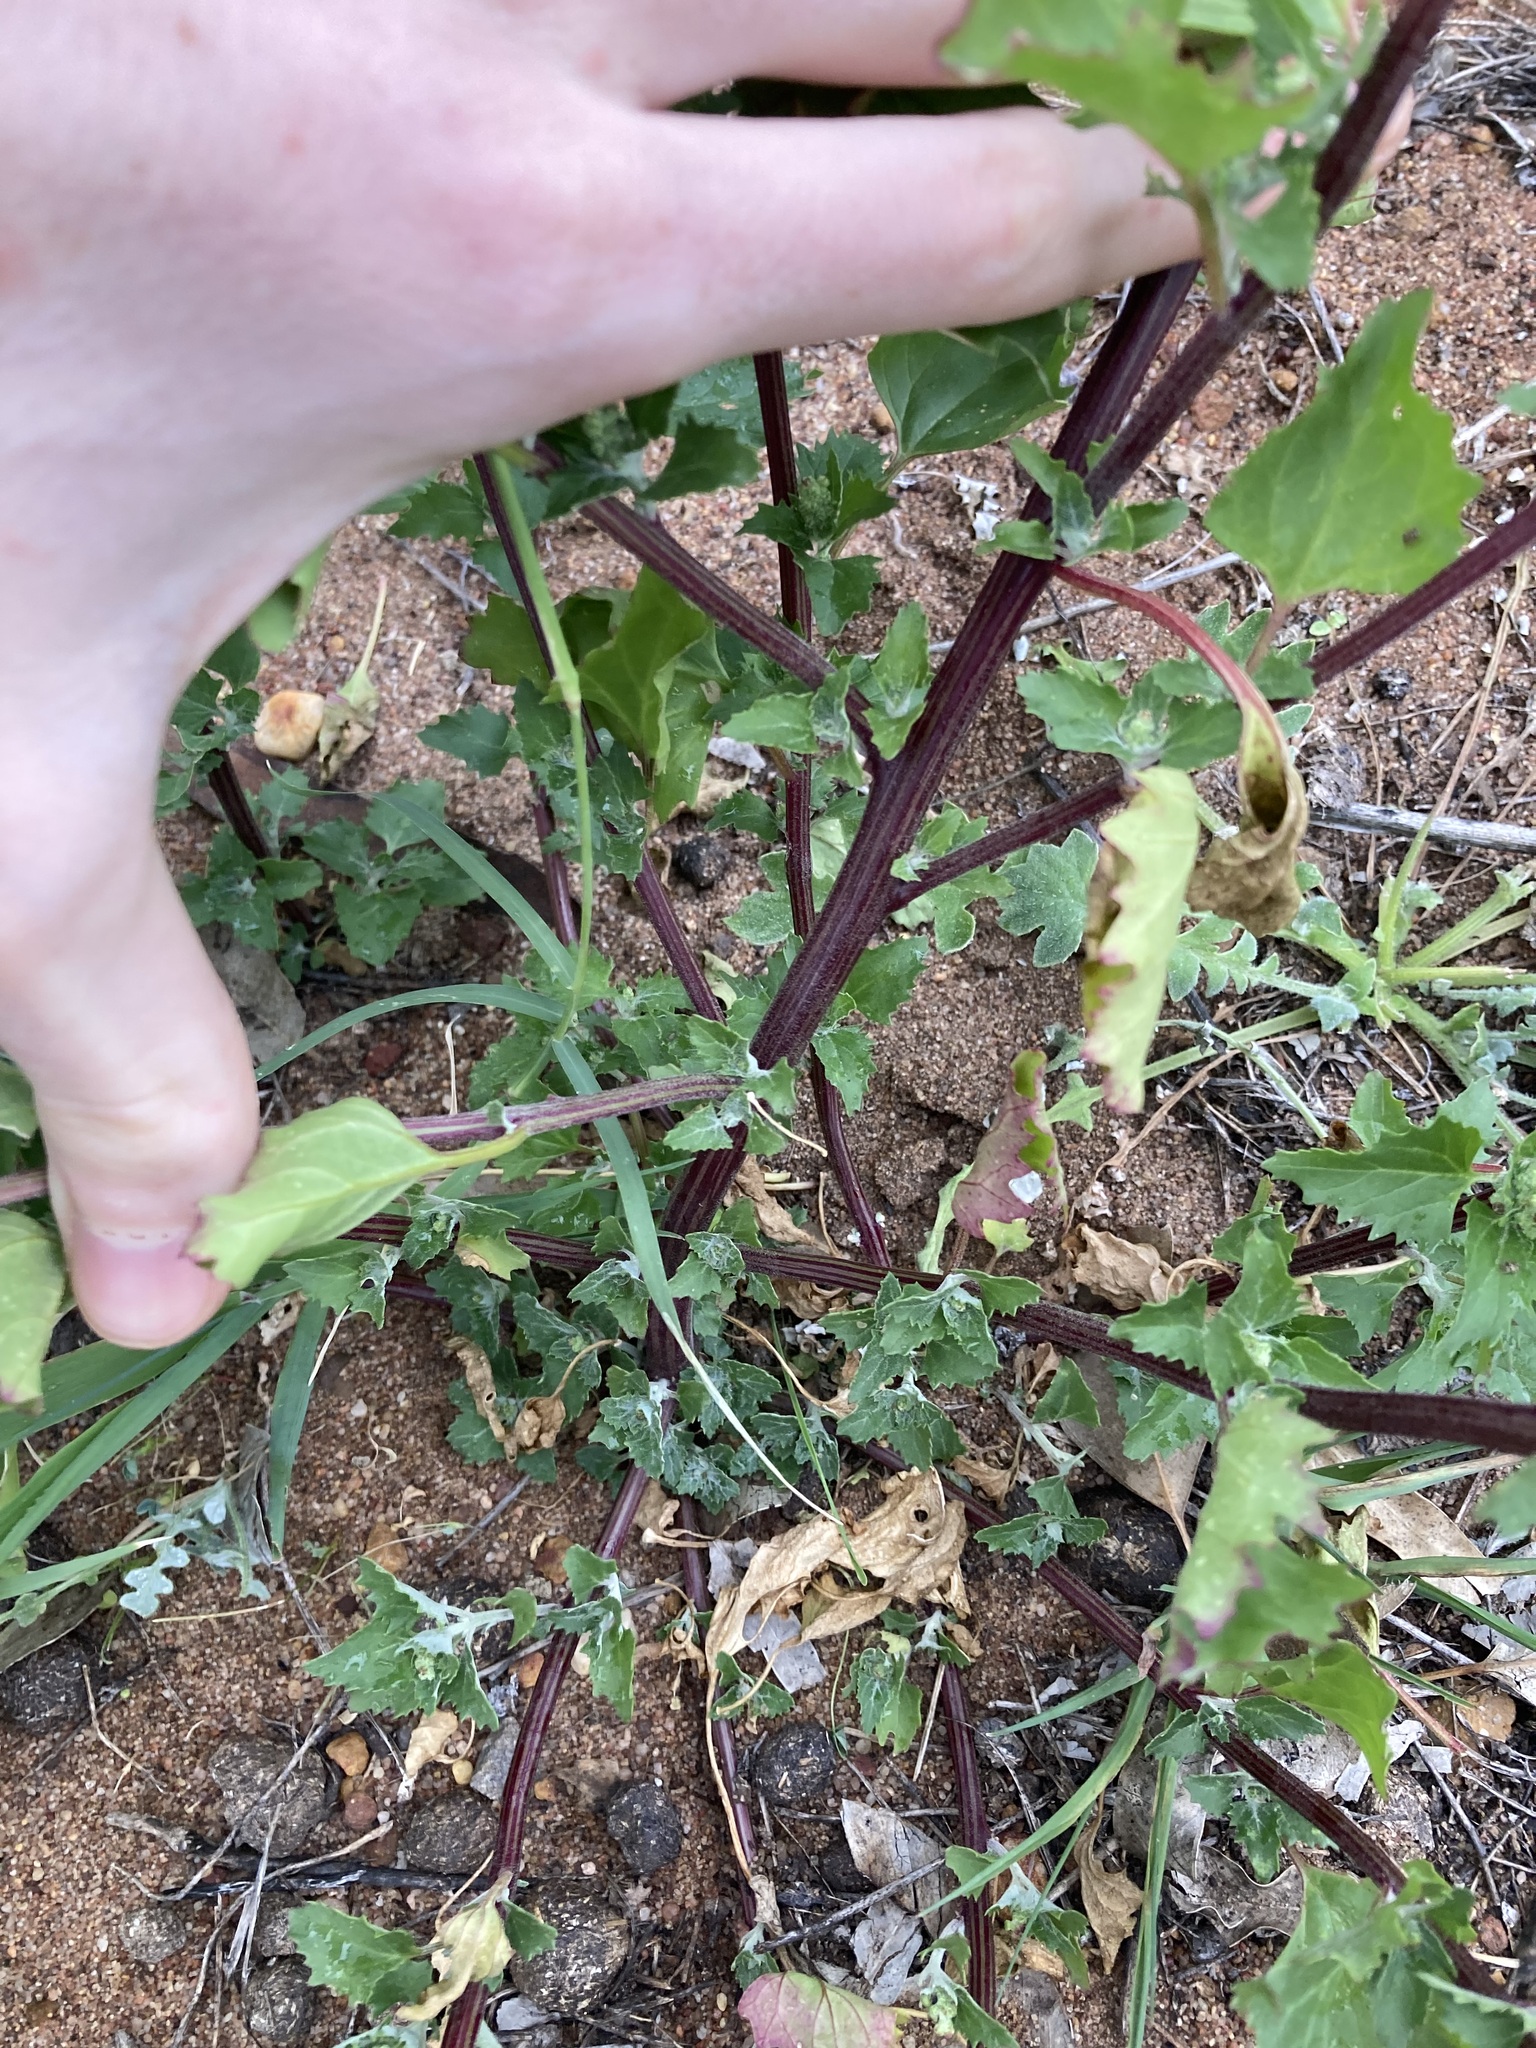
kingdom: Plantae
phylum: Tracheophyta
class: Magnoliopsida
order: Caryophyllales
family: Amaranthaceae
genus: Chenopodiastrum
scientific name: Chenopodiastrum murale
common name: Sowbane
